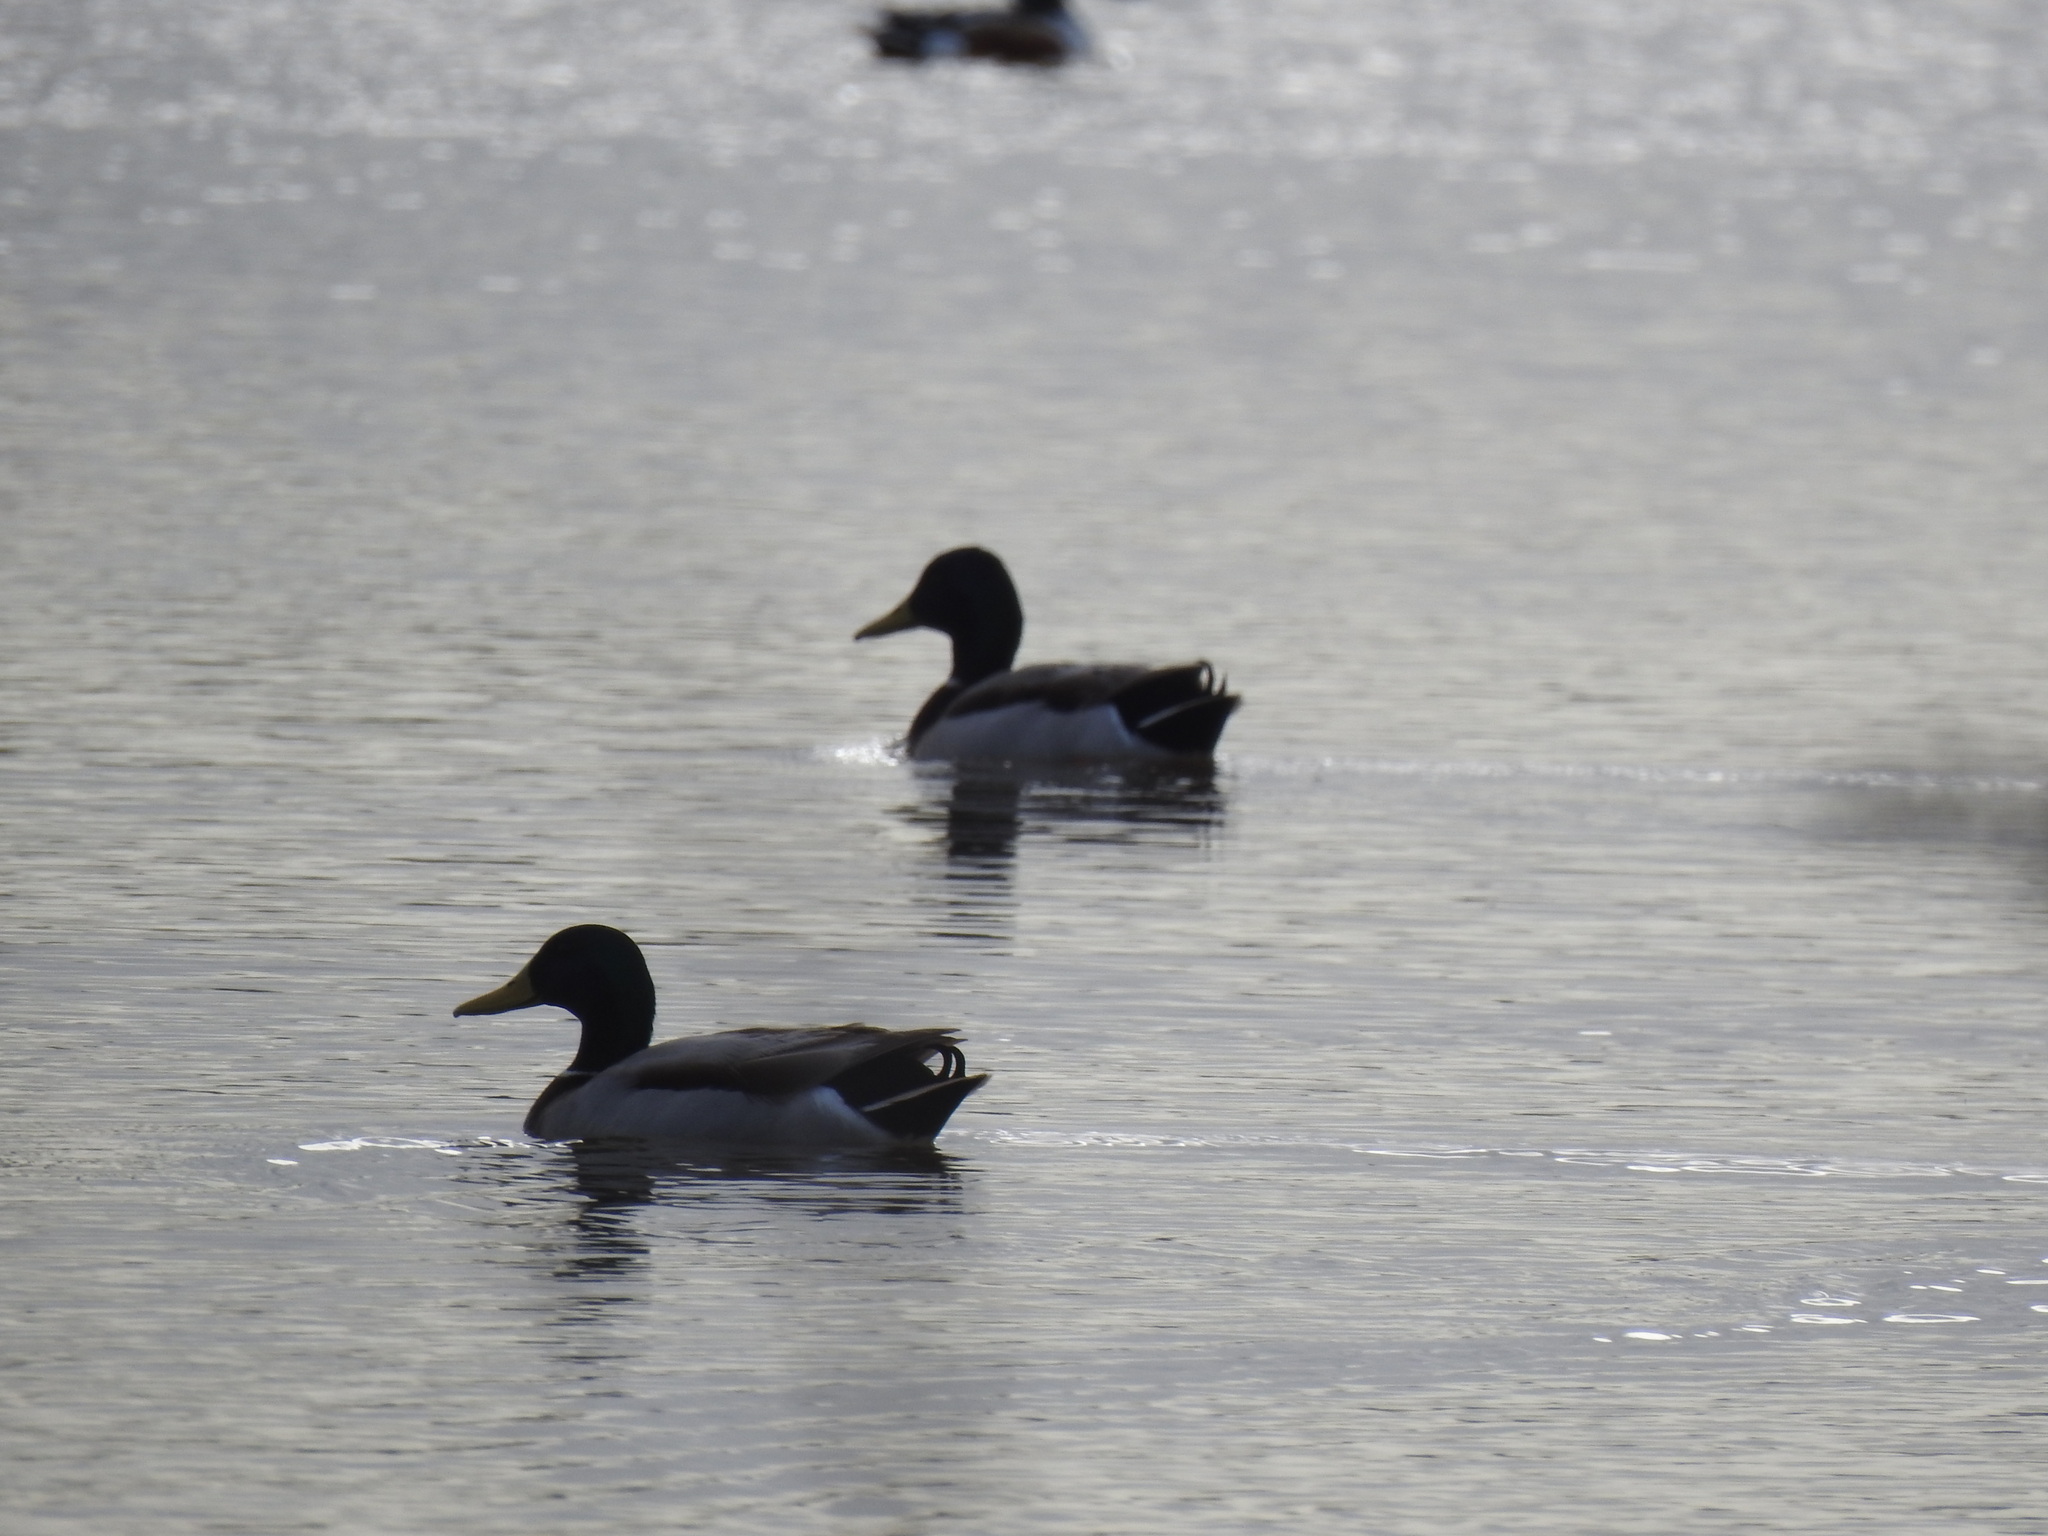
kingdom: Animalia
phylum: Chordata
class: Aves
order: Anseriformes
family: Anatidae
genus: Anas
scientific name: Anas platyrhynchos
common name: Mallard
